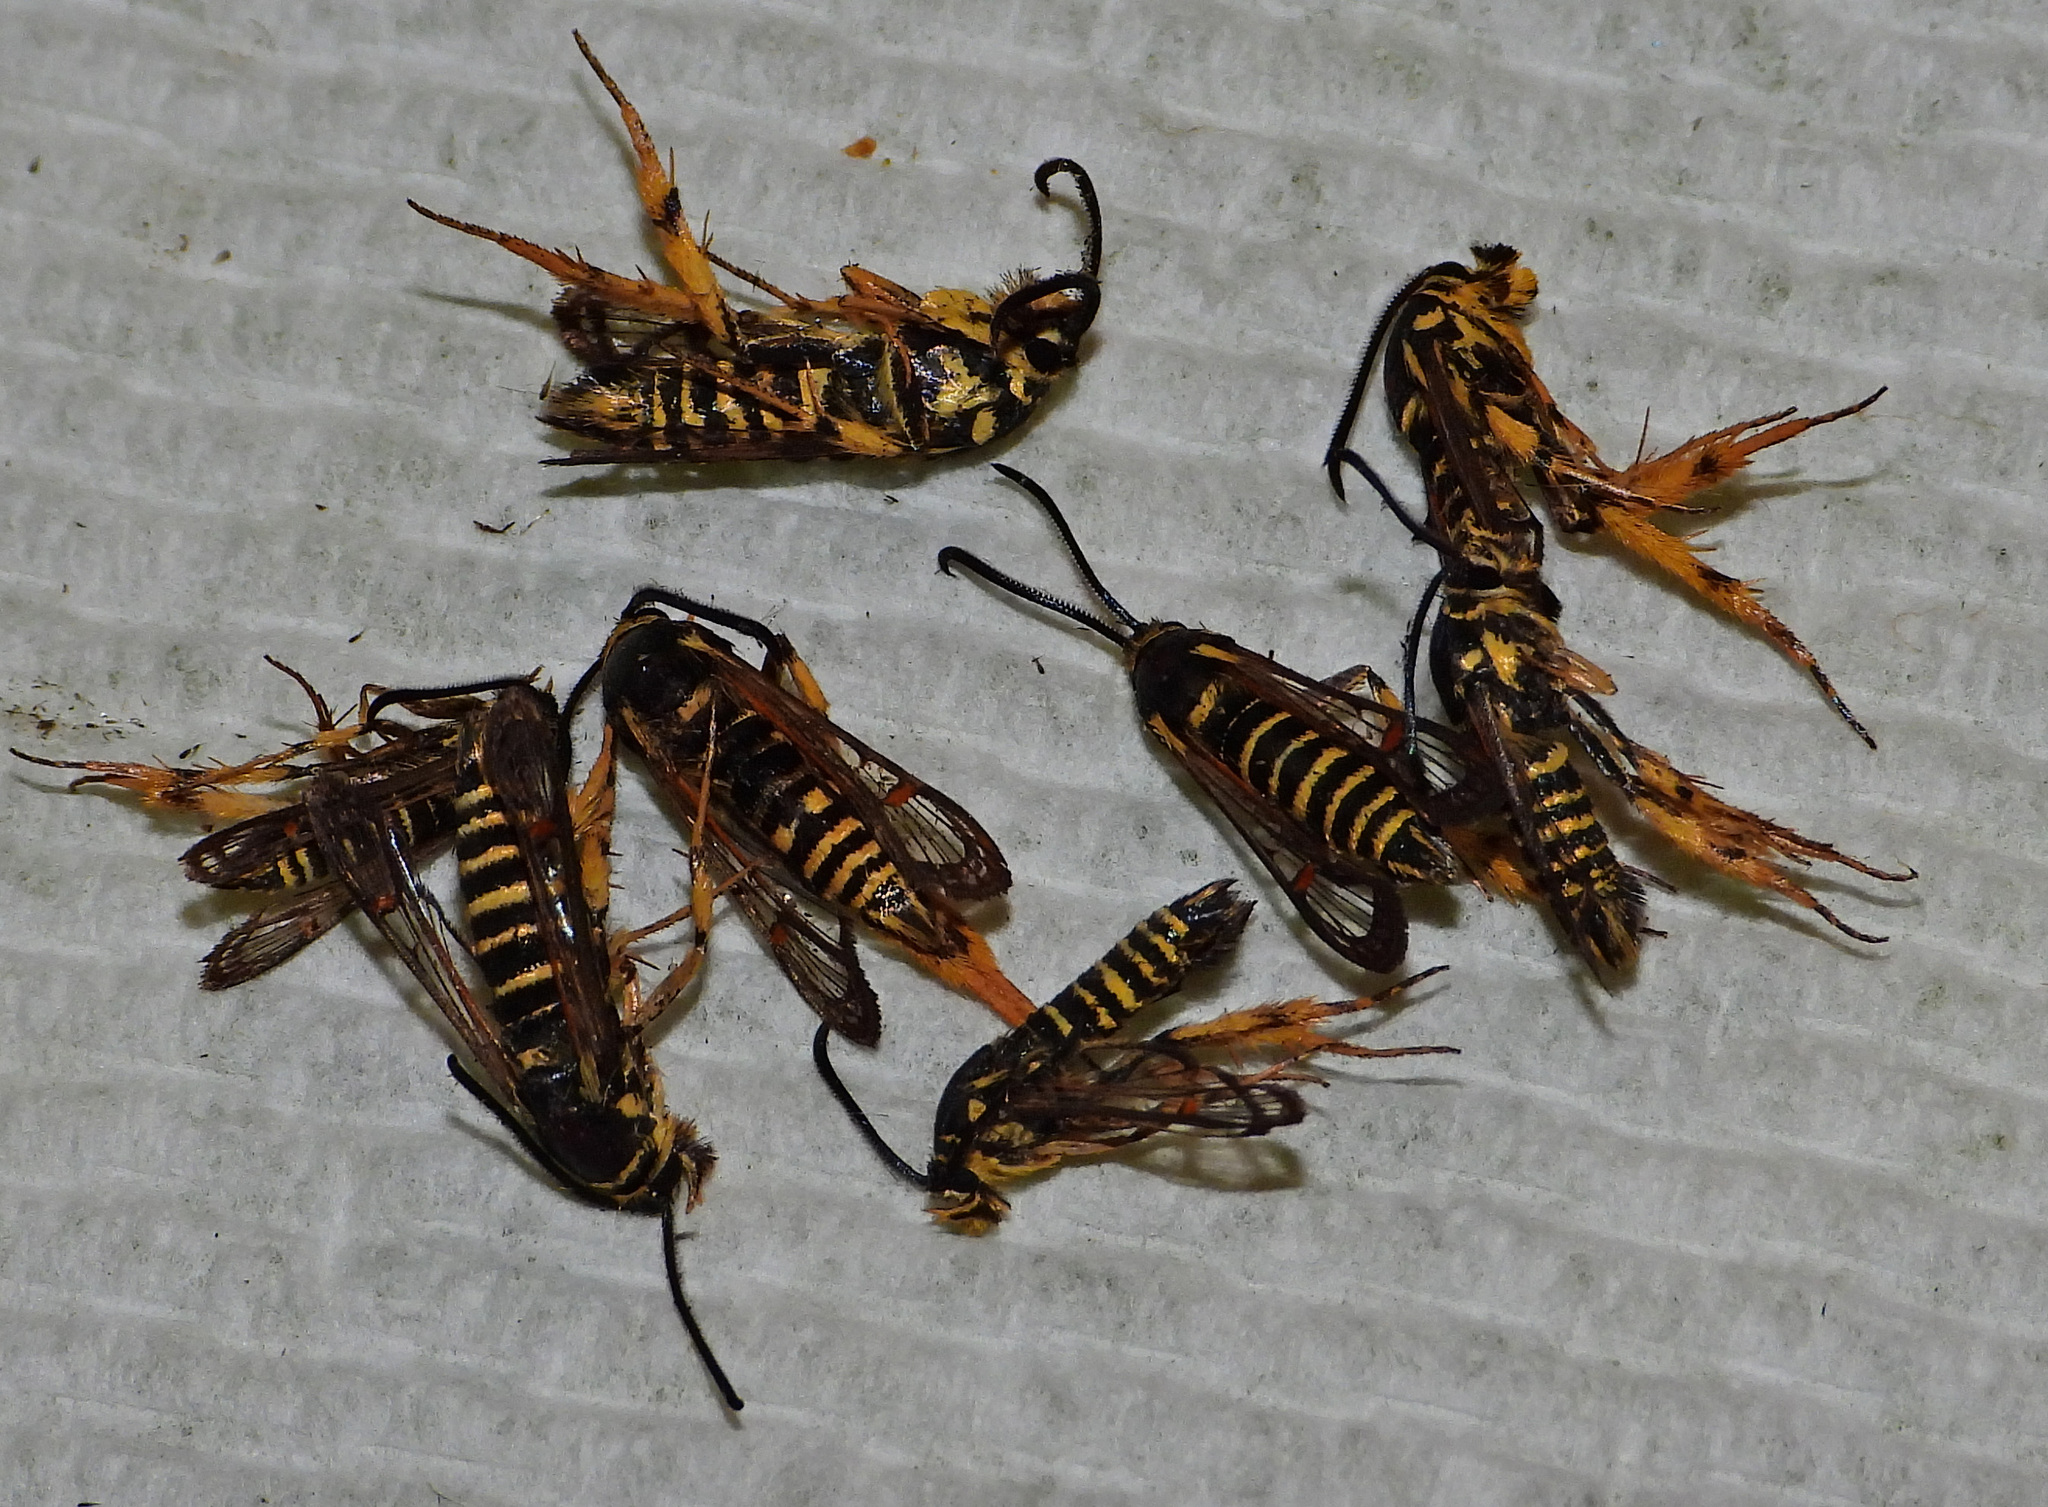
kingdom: Animalia
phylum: Arthropoda
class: Insecta
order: Lepidoptera
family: Sesiidae
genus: Synanthedon
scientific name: Synanthedon rileyana
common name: Riley's clearwing moth
